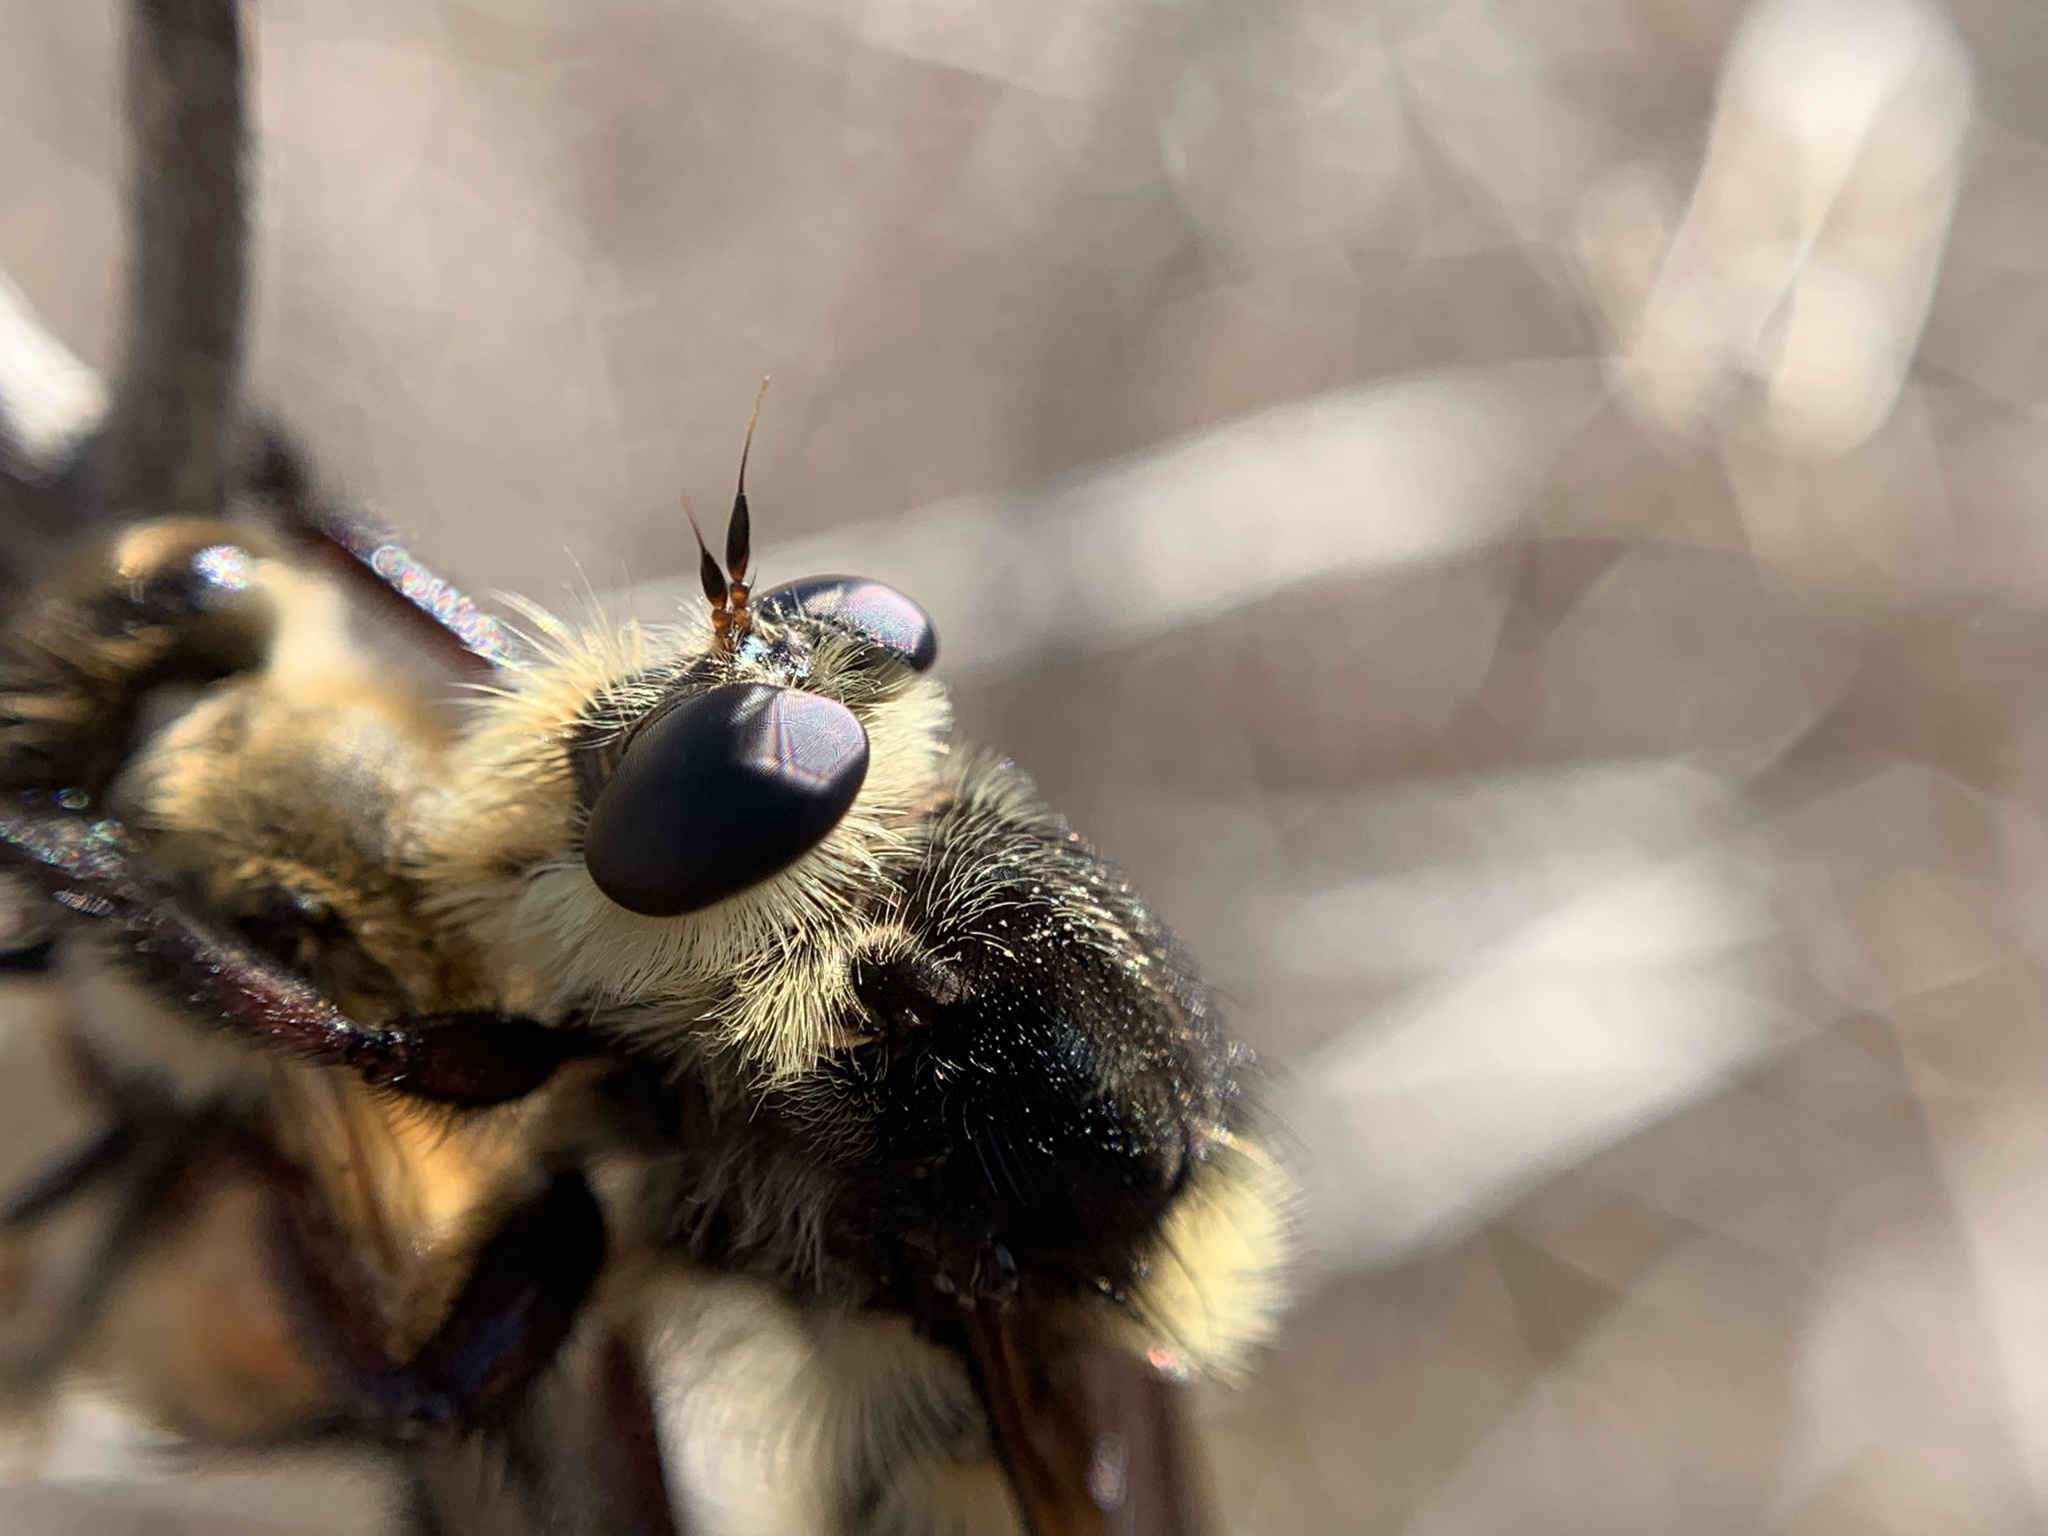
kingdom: Animalia
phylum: Arthropoda
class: Insecta
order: Diptera
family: Asilidae
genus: Mallophora
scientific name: Mallophora fautrix
